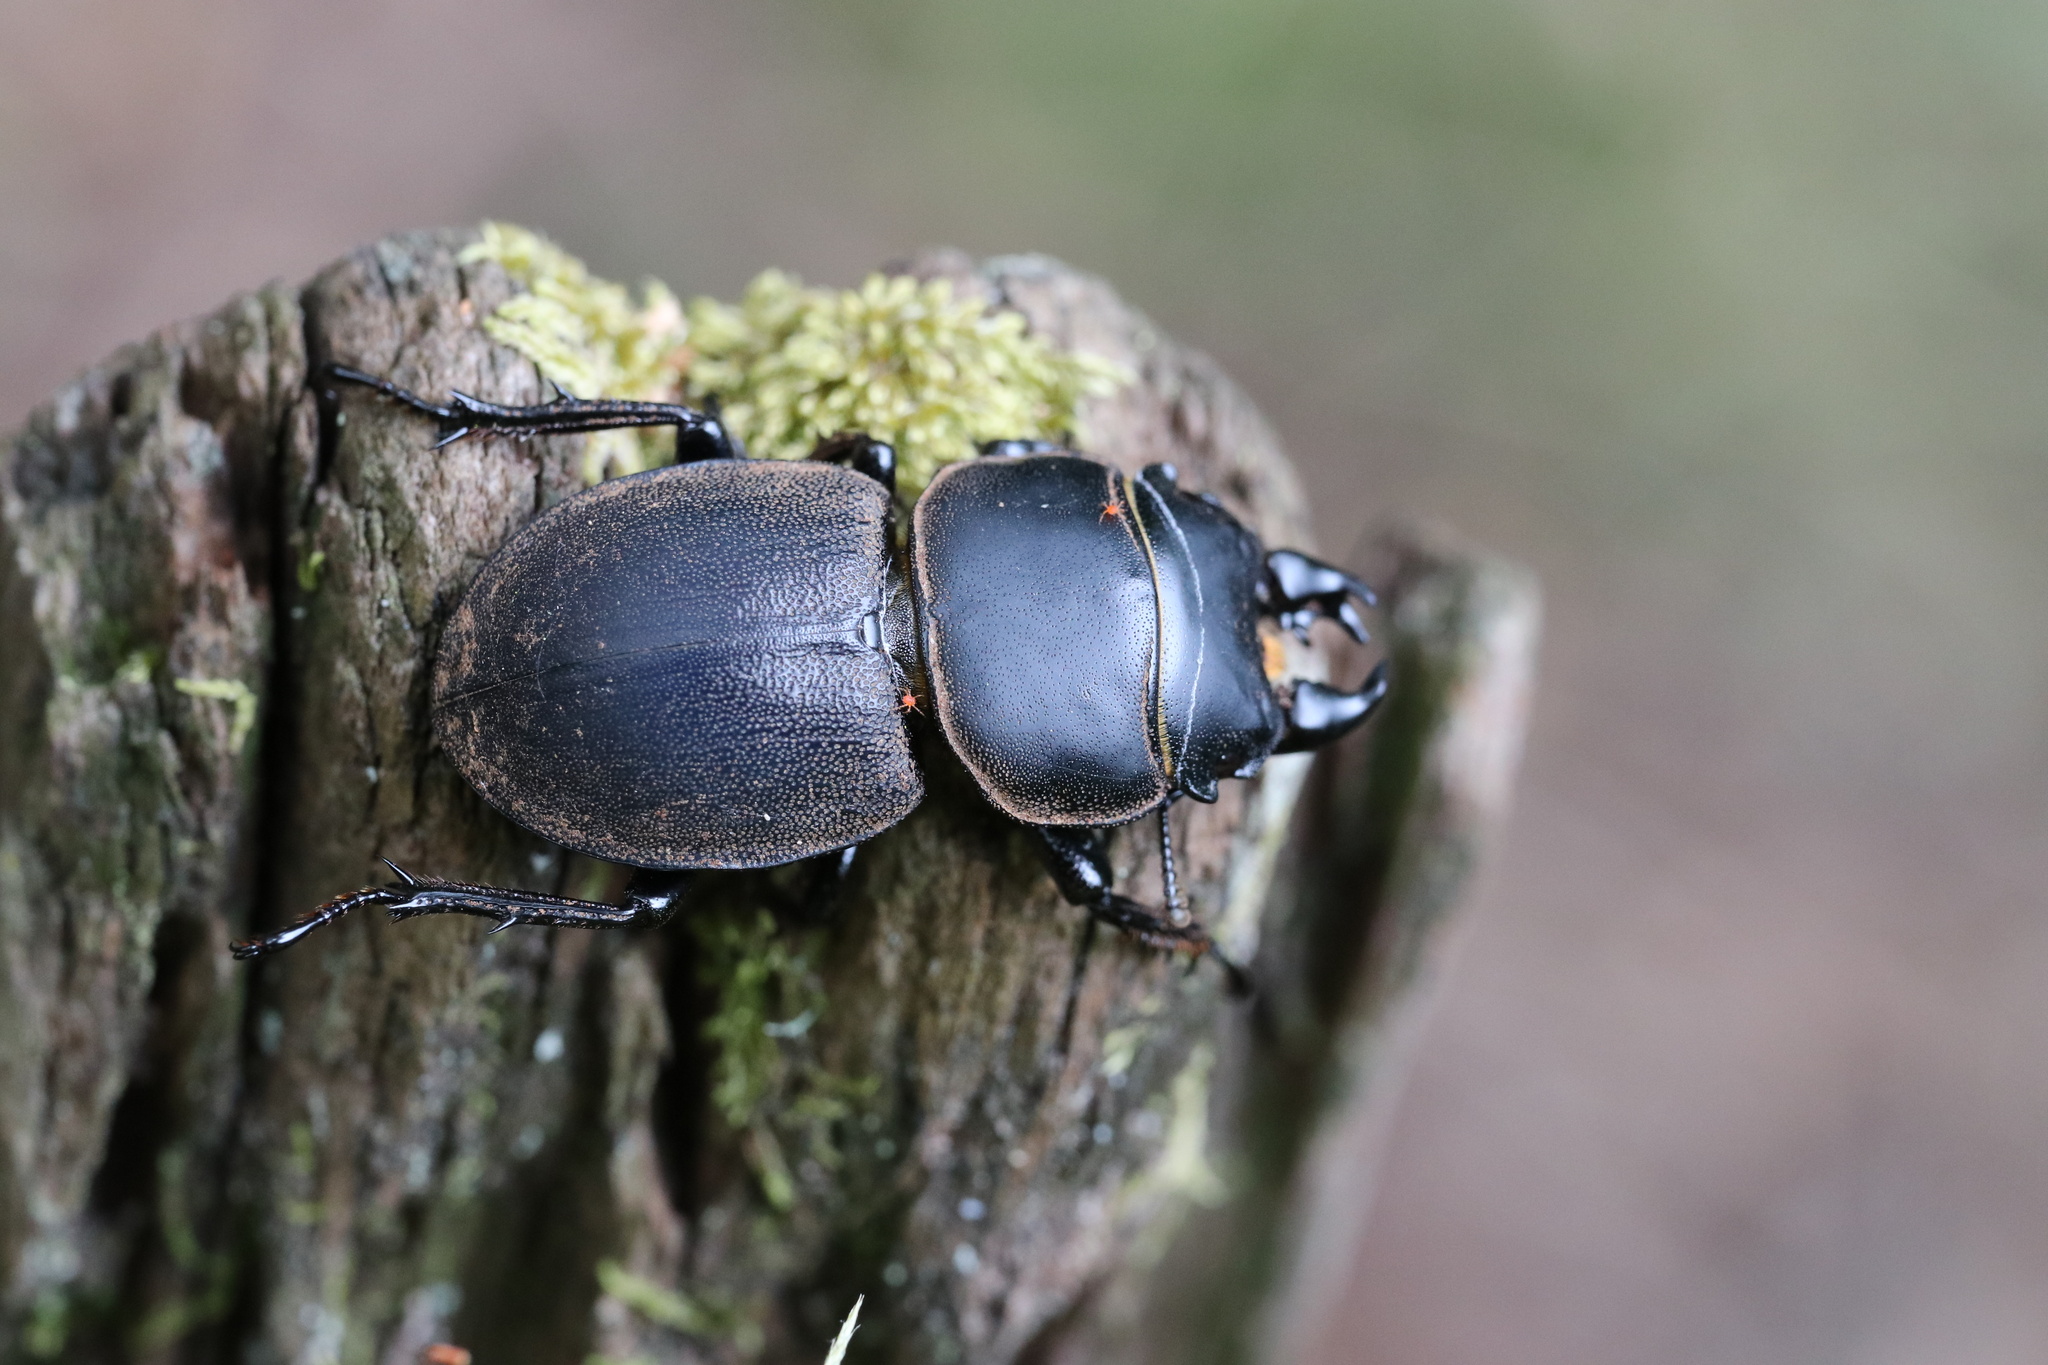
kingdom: Animalia
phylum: Arthropoda
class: Insecta
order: Coleoptera
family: Lucanidae
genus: Apterodorcus
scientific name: Apterodorcus bacchus
